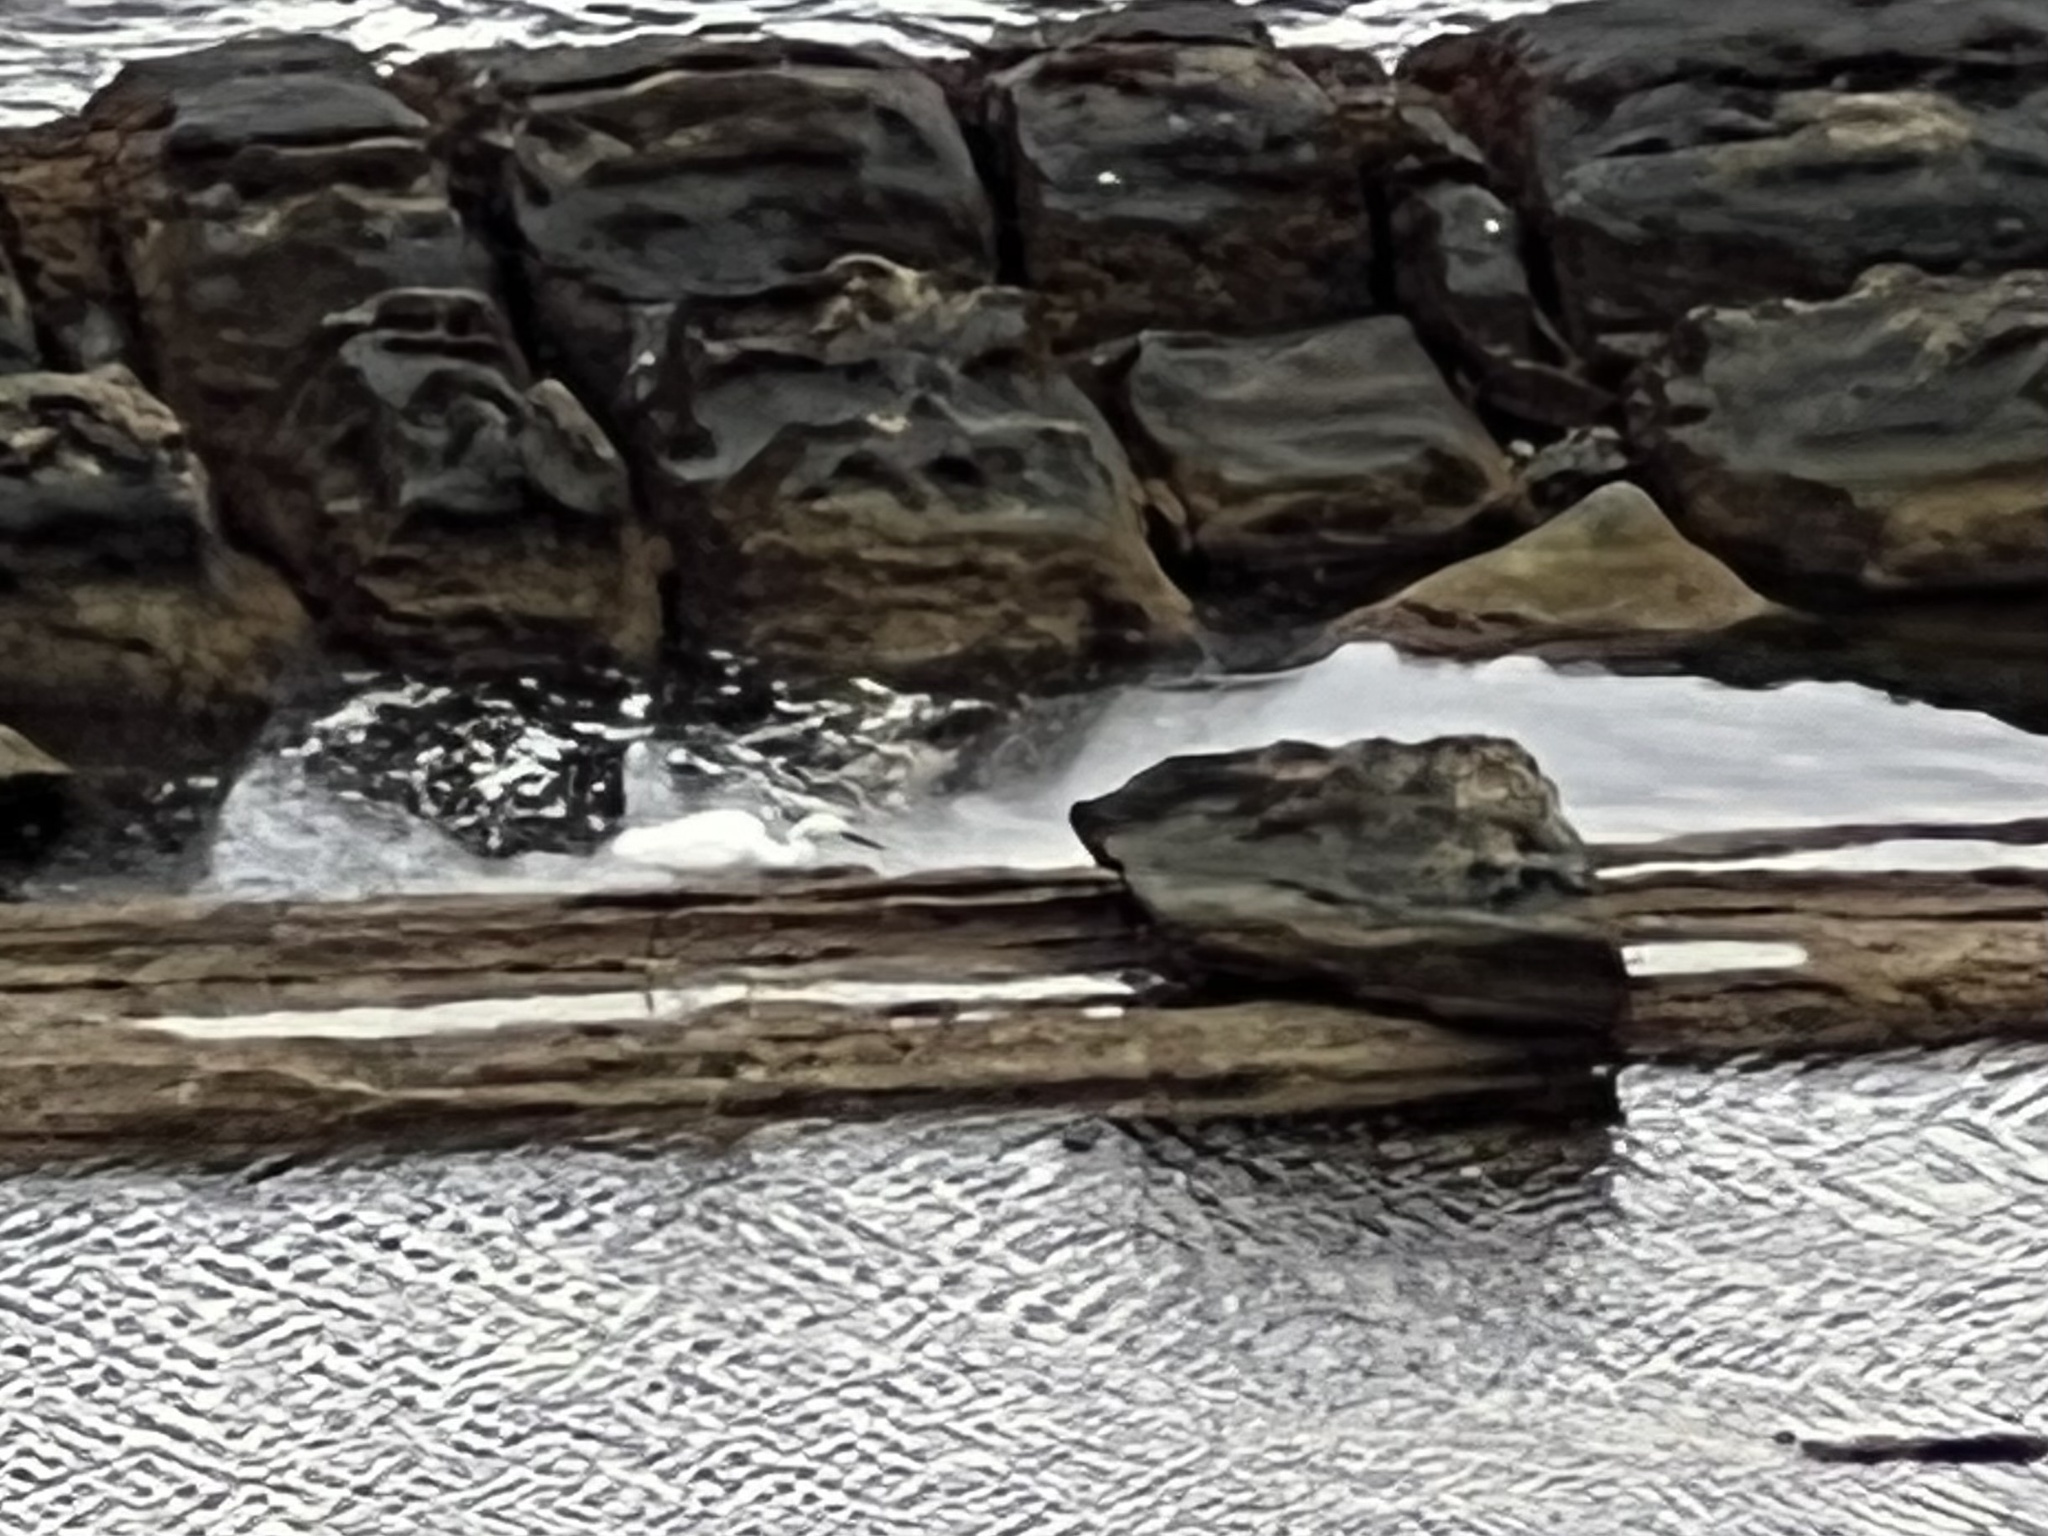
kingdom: Animalia
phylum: Chordata
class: Aves
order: Pelecaniformes
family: Ardeidae
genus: Egretta
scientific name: Egretta garzetta
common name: Little egret
